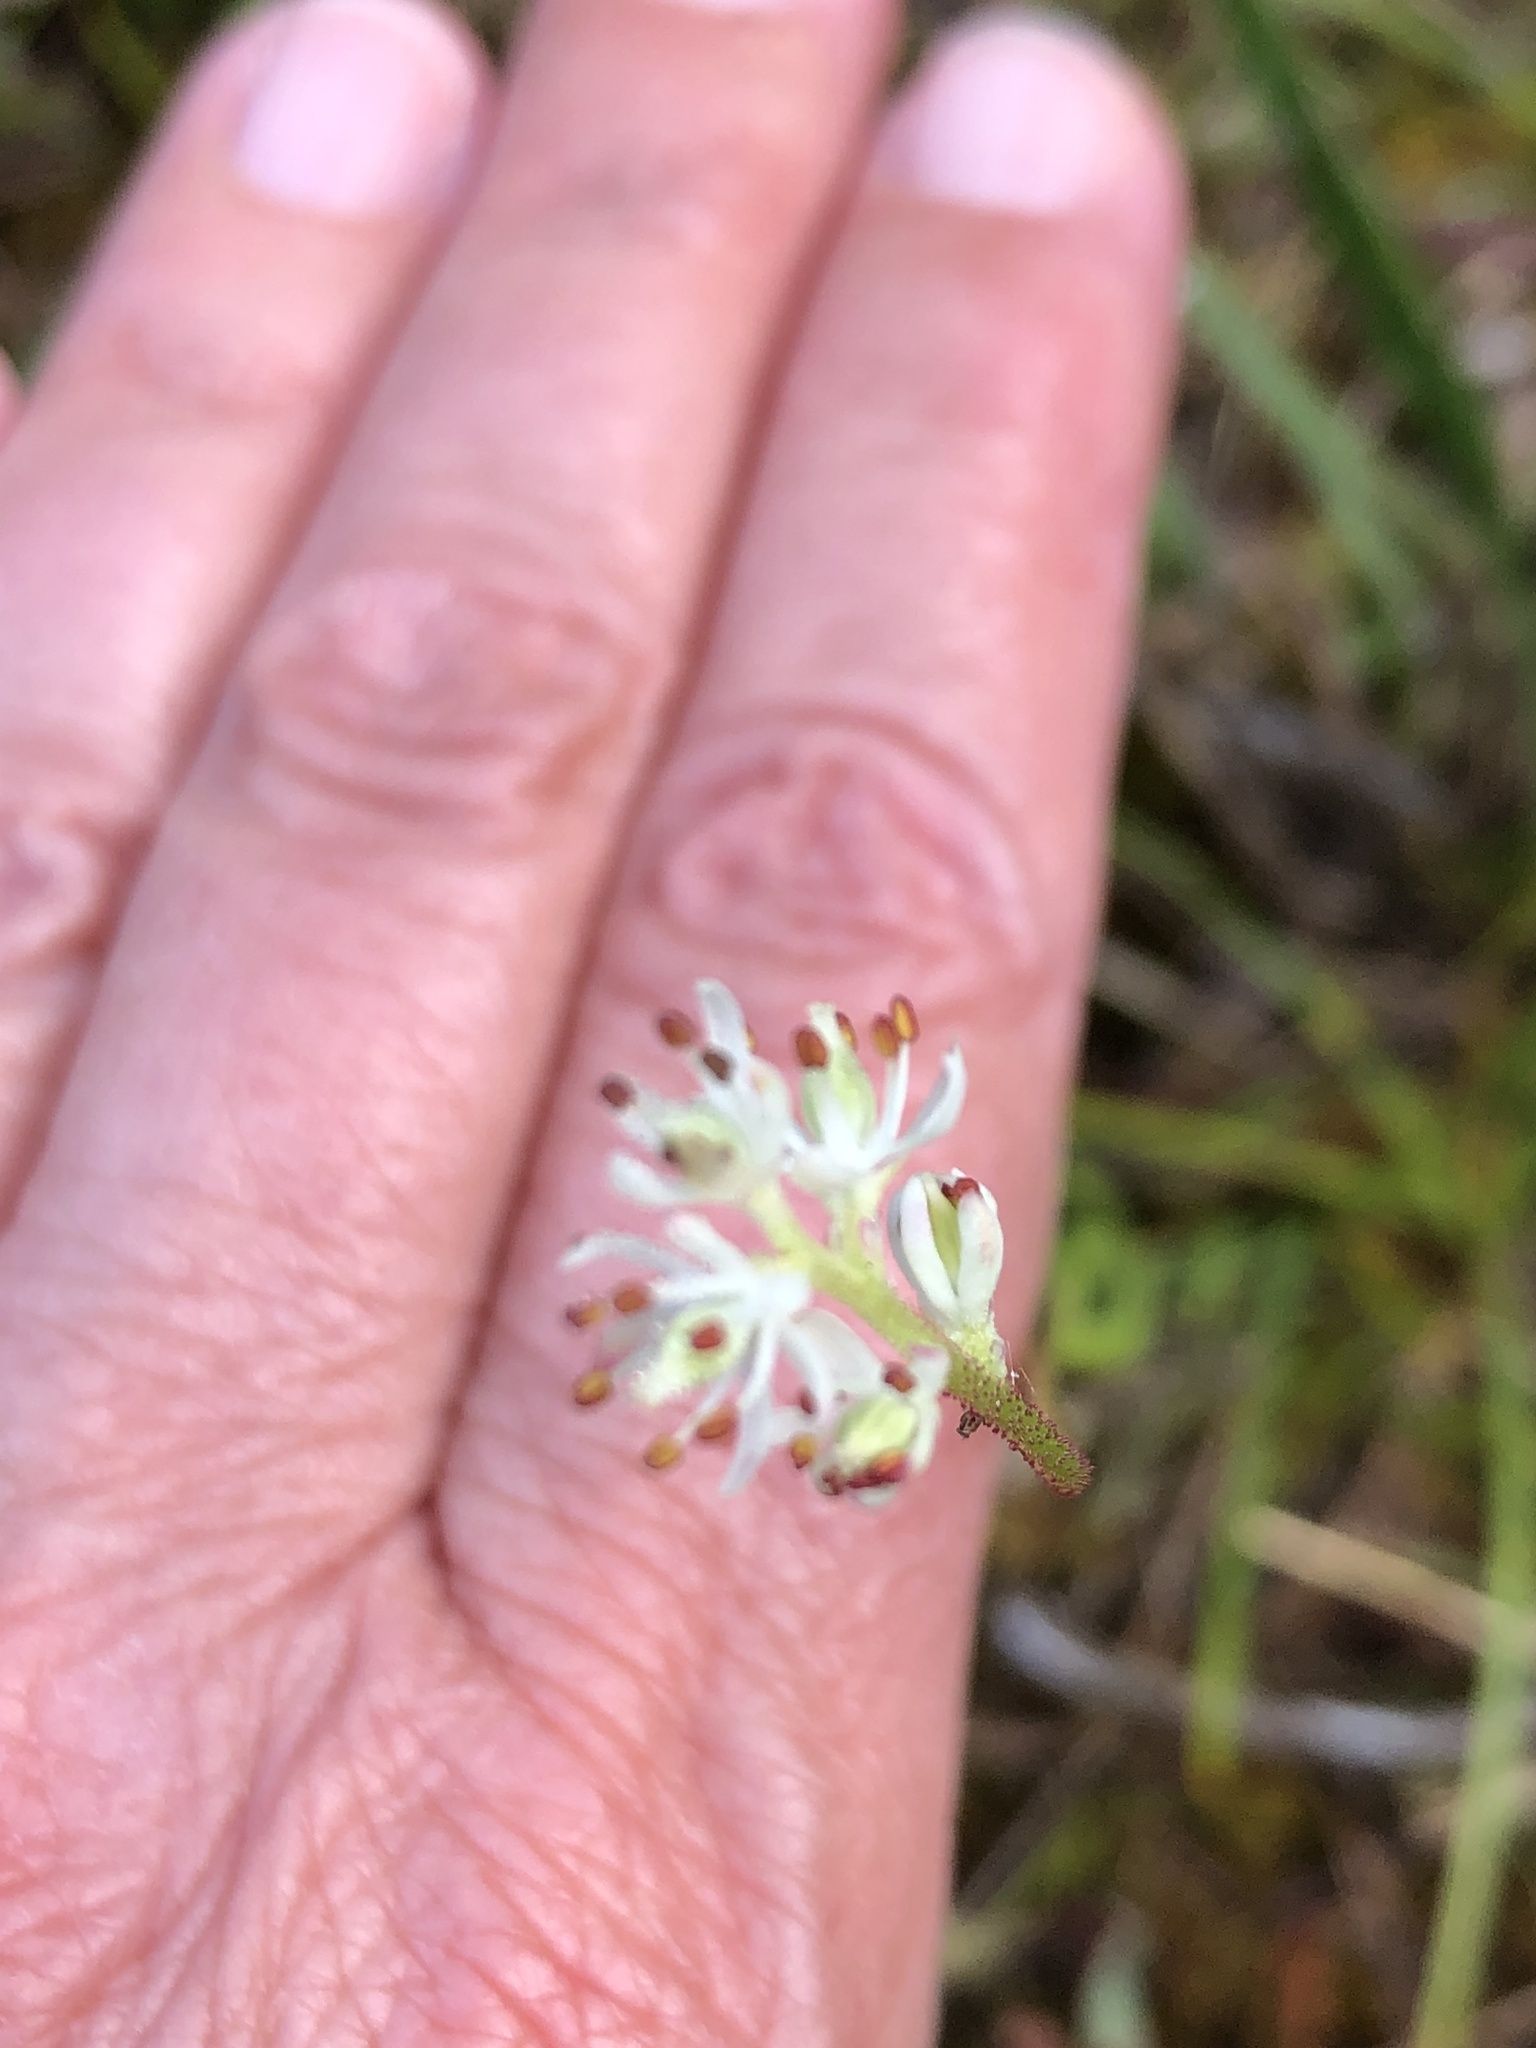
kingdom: Plantae
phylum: Tracheophyta
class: Liliopsida
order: Alismatales
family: Tofieldiaceae
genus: Triantha
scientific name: Triantha glutinosa
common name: Glutinous tofieldia
